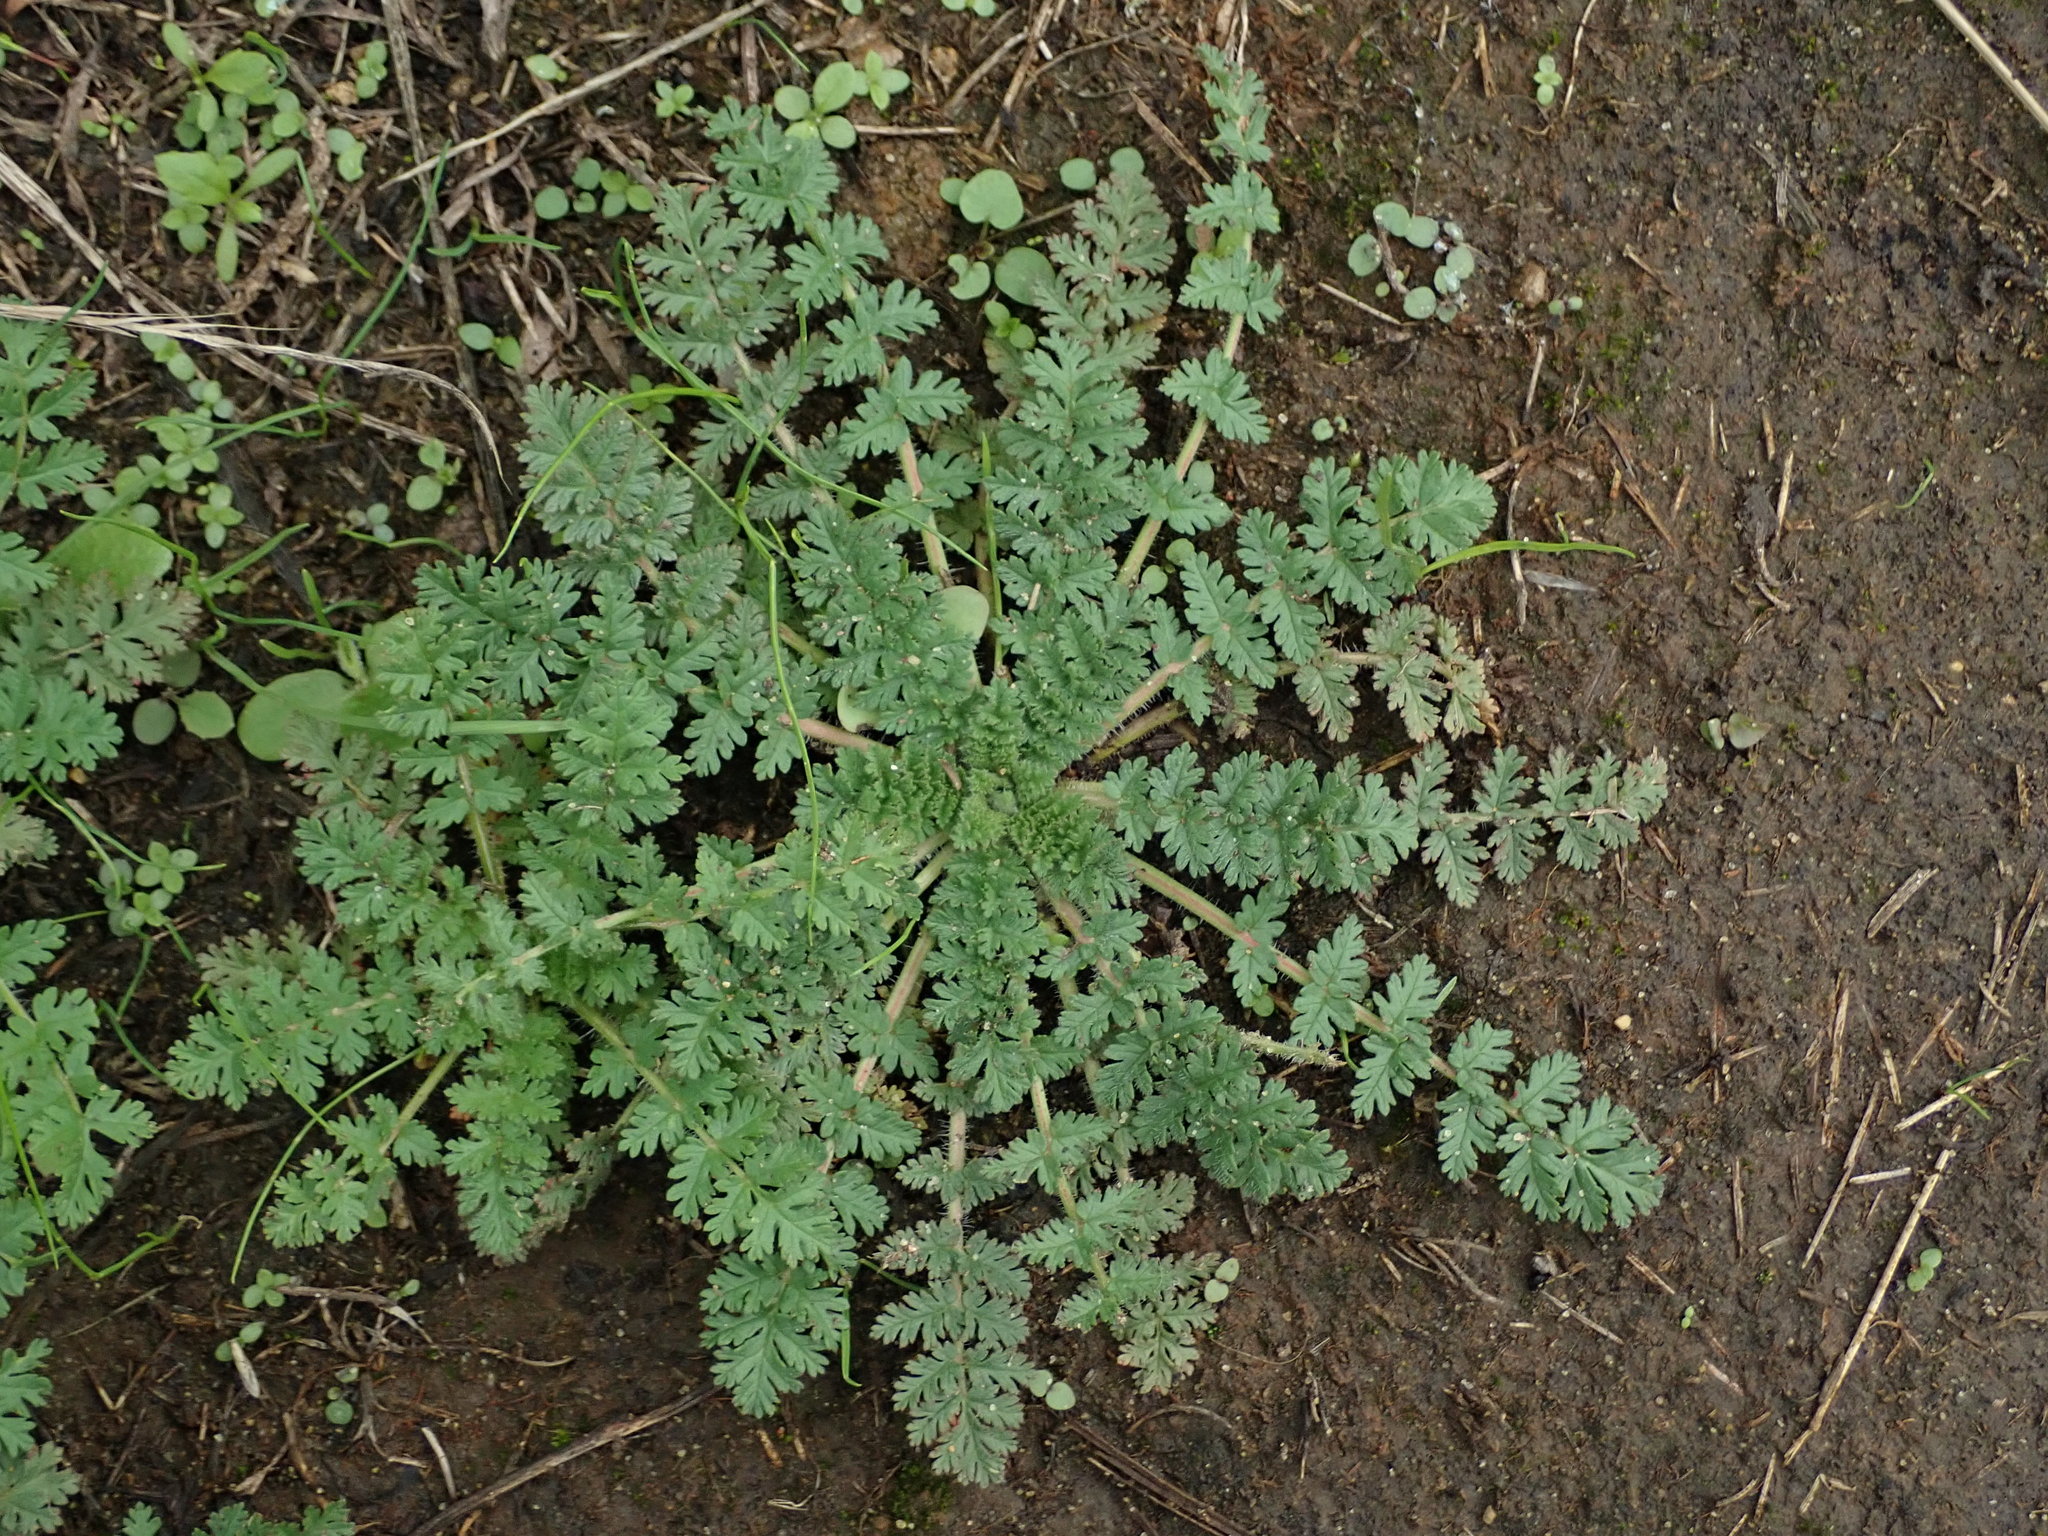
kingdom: Plantae
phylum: Tracheophyta
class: Magnoliopsida
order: Geraniales
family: Geraniaceae
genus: Erodium
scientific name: Erodium cicutarium
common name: Common stork's-bill
